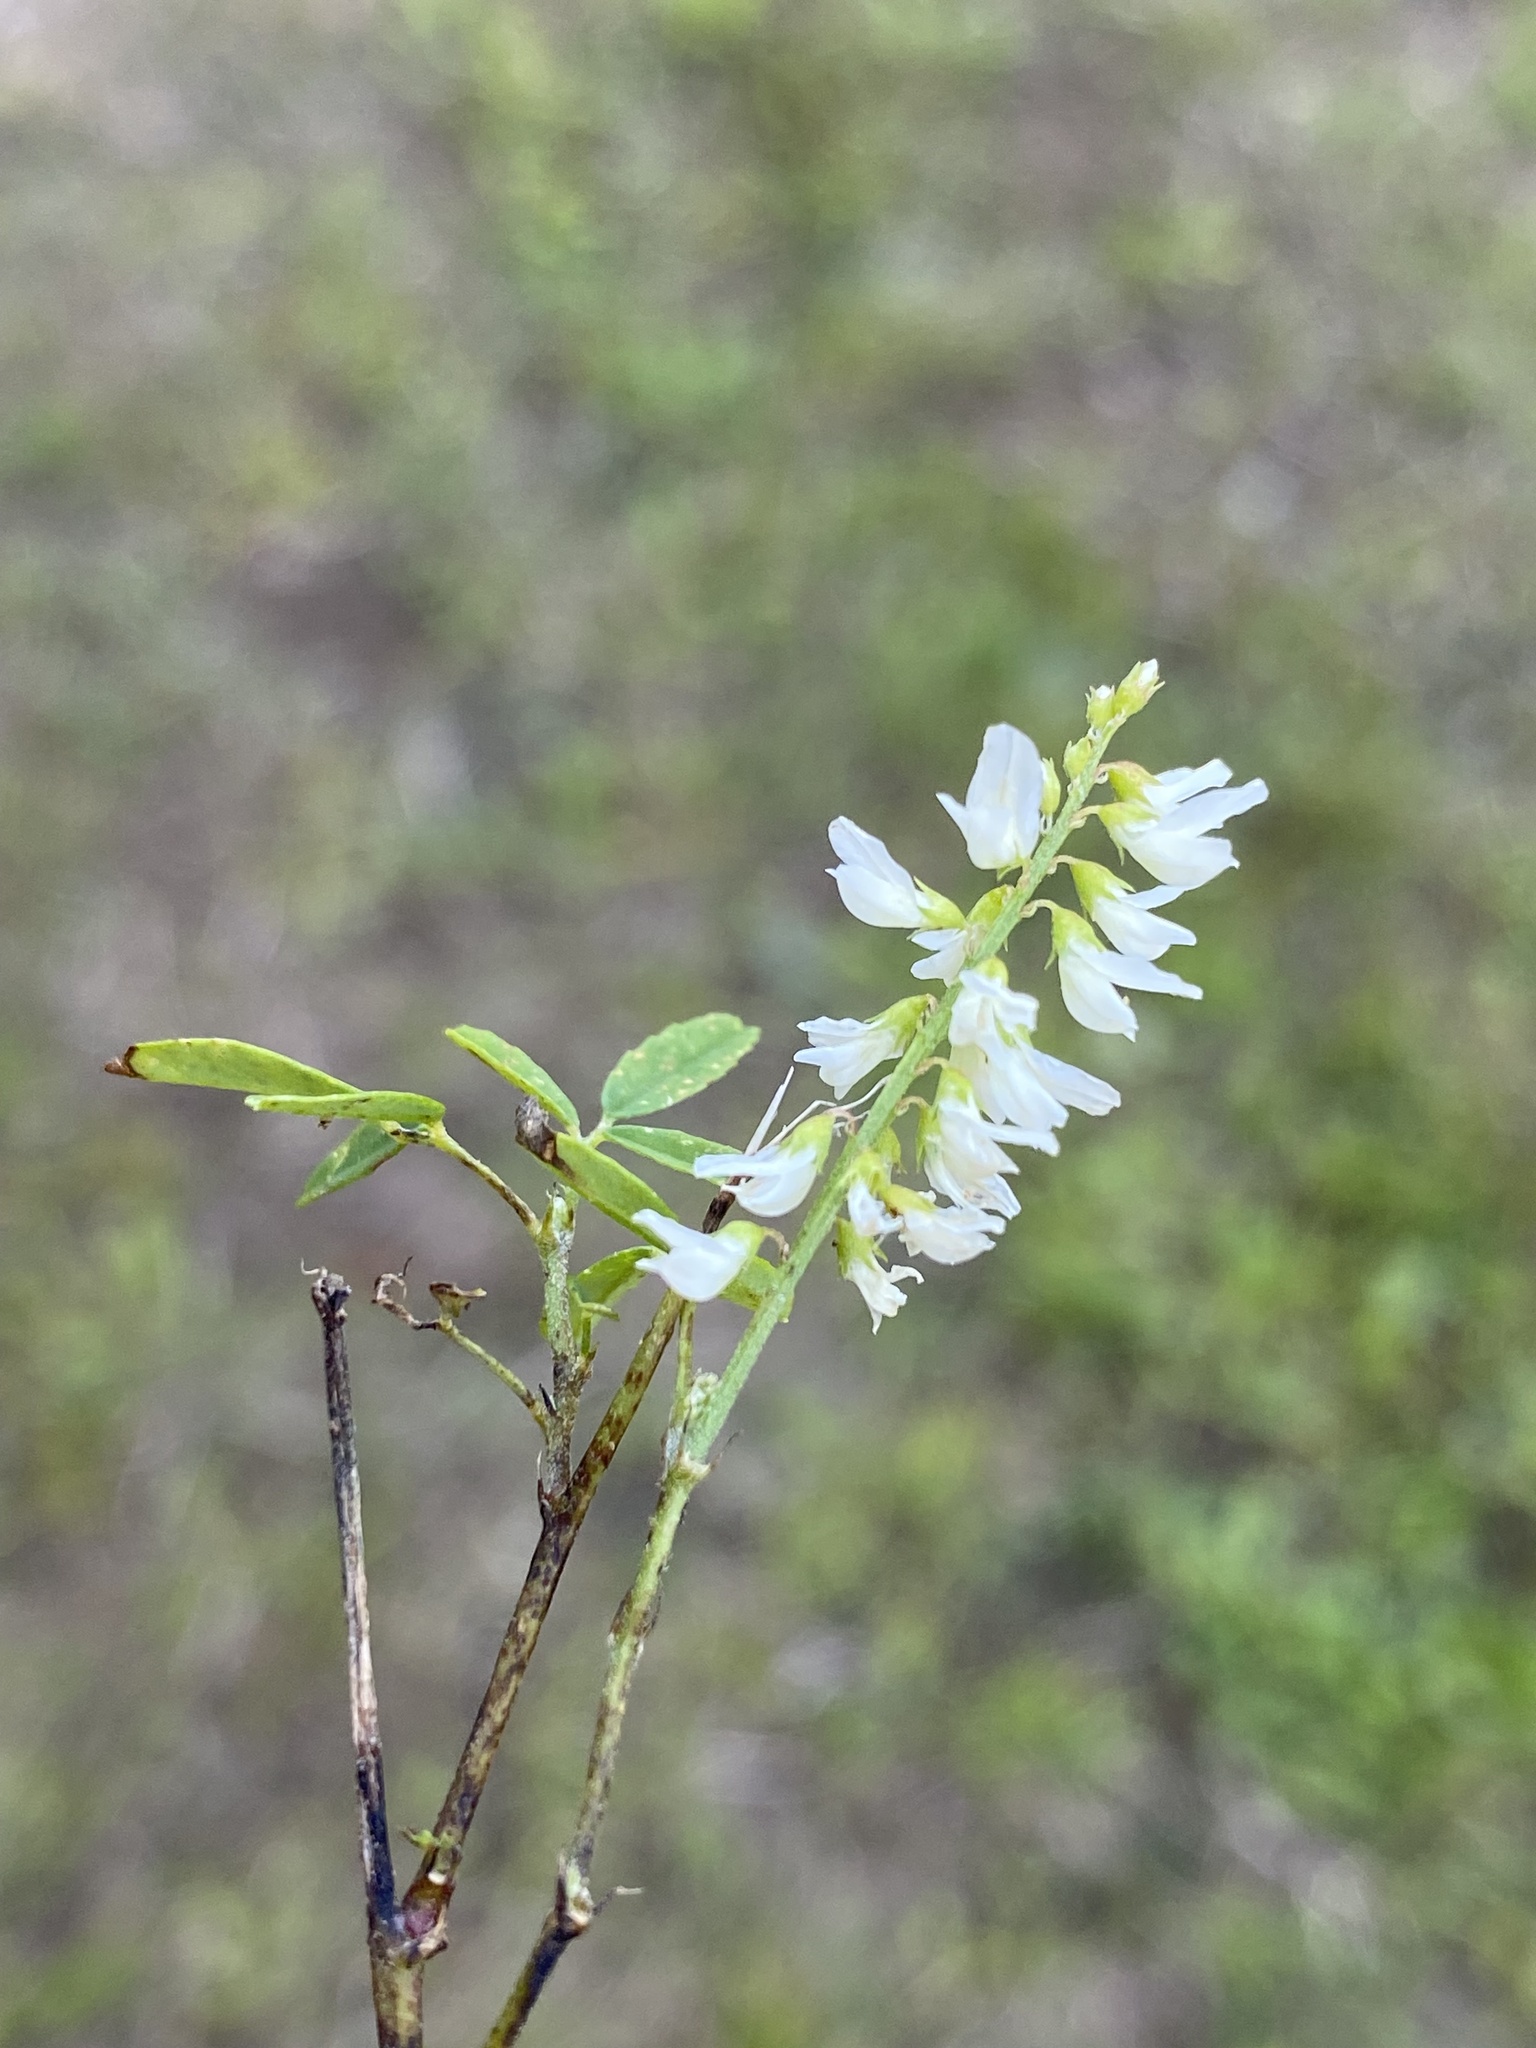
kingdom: Plantae
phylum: Tracheophyta
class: Magnoliopsida
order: Fabales
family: Fabaceae
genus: Melilotus
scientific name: Melilotus albus
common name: White melilot
